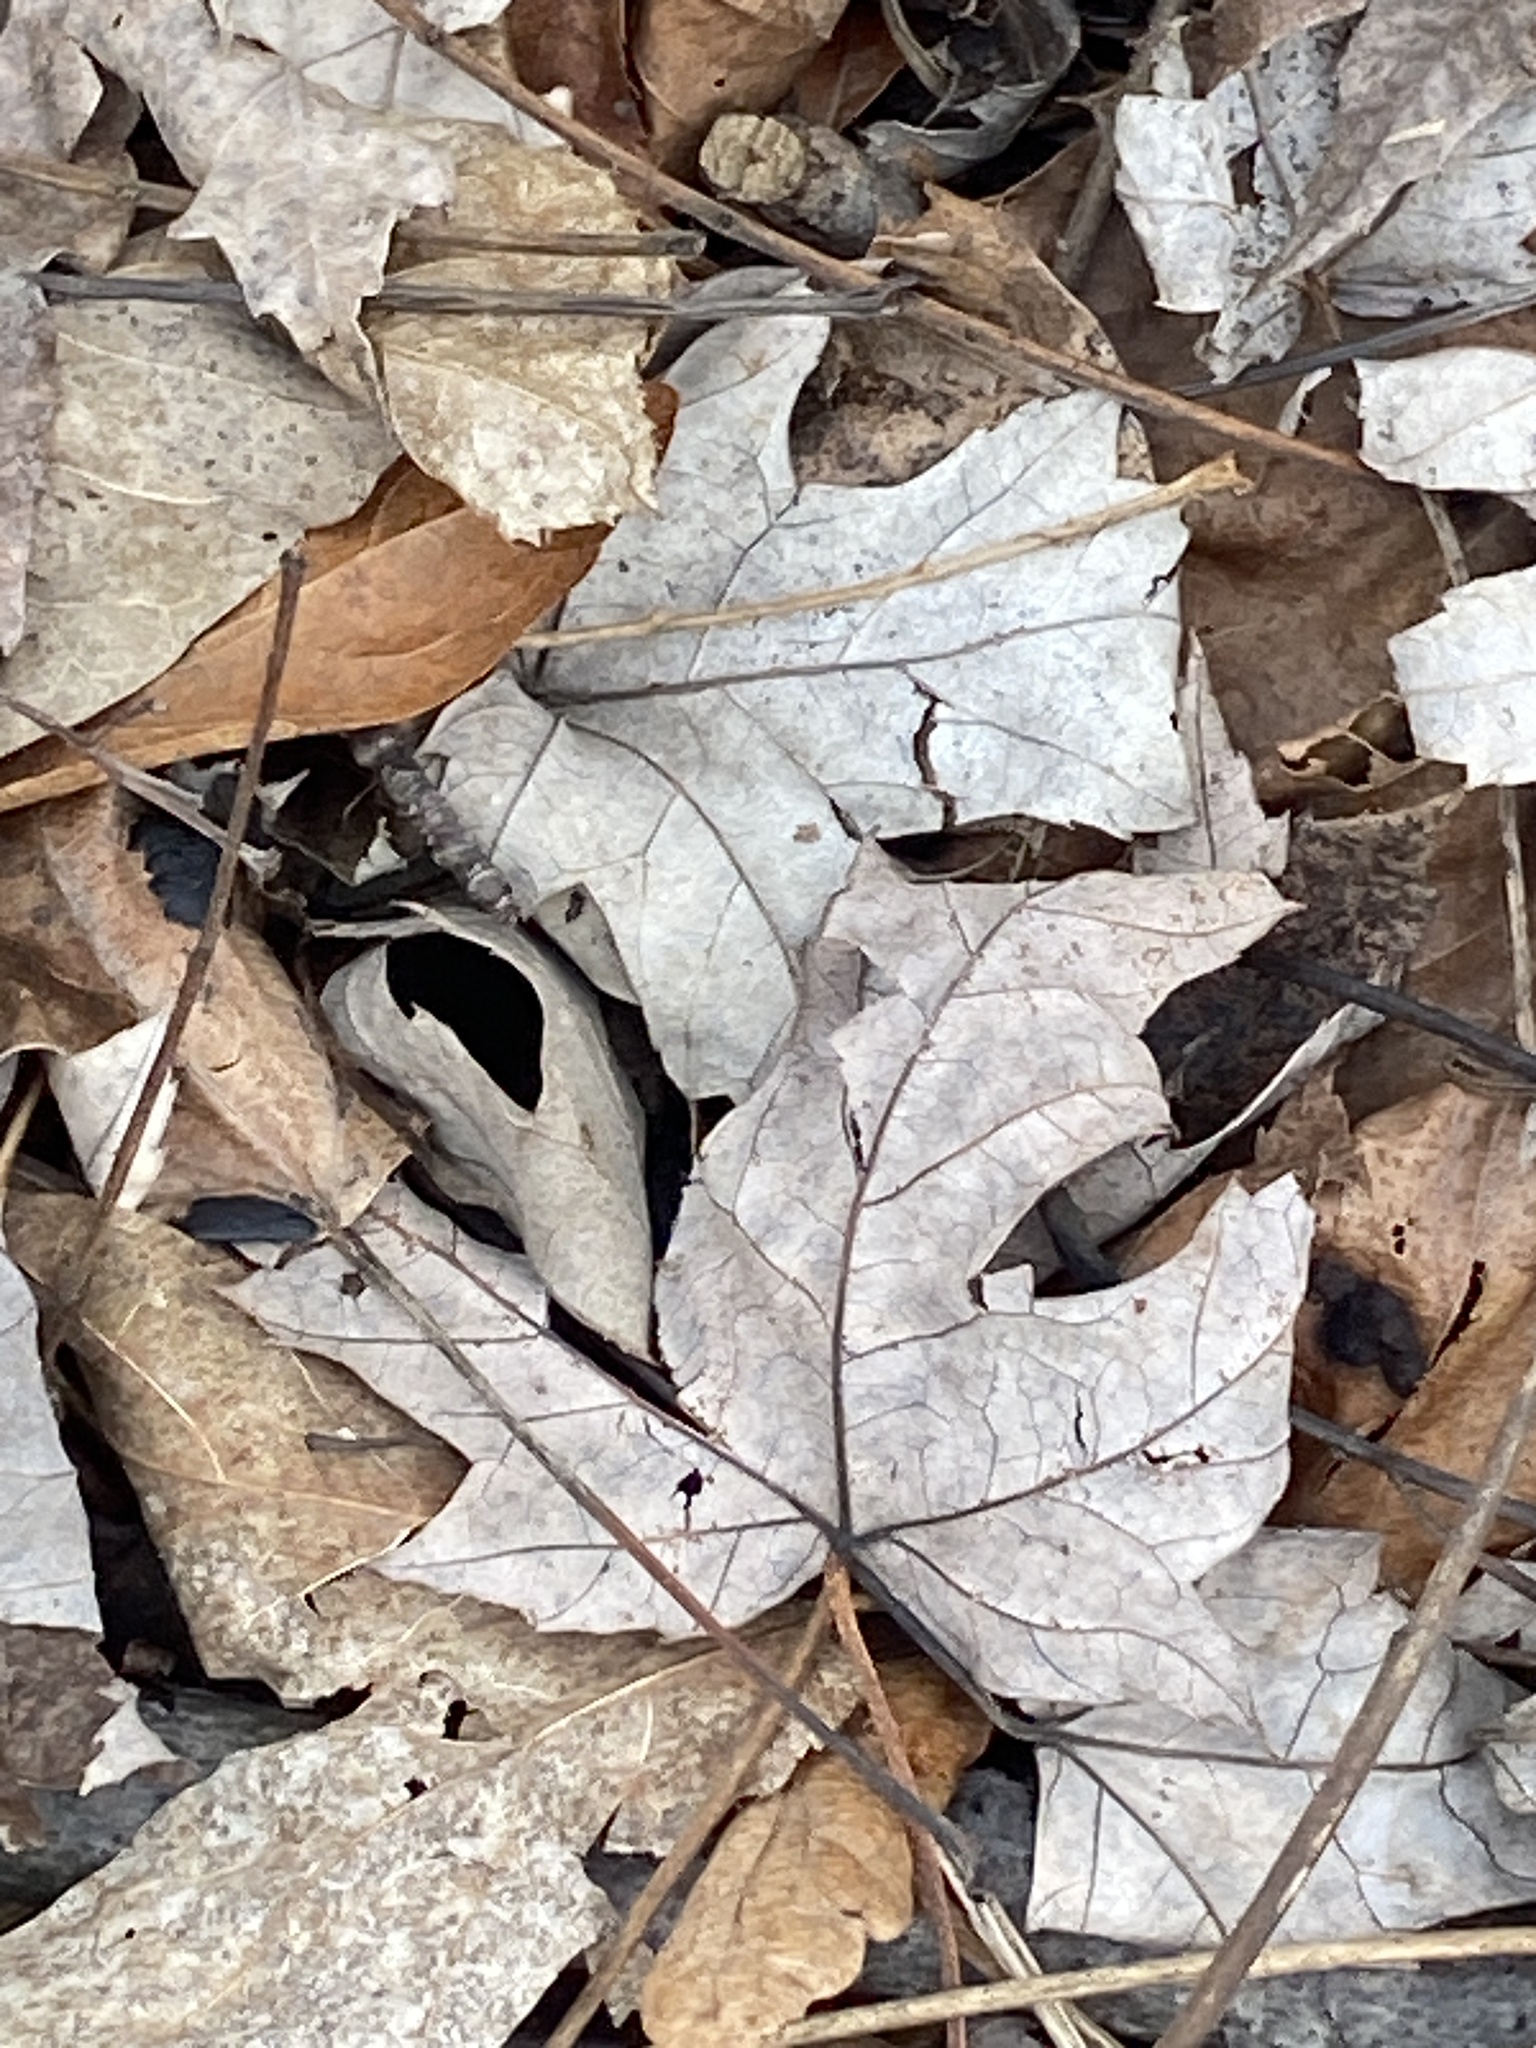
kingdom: Plantae
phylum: Tracheophyta
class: Magnoliopsida
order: Sapindales
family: Sapindaceae
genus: Acer
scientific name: Acer saccharinum
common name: Silver maple
